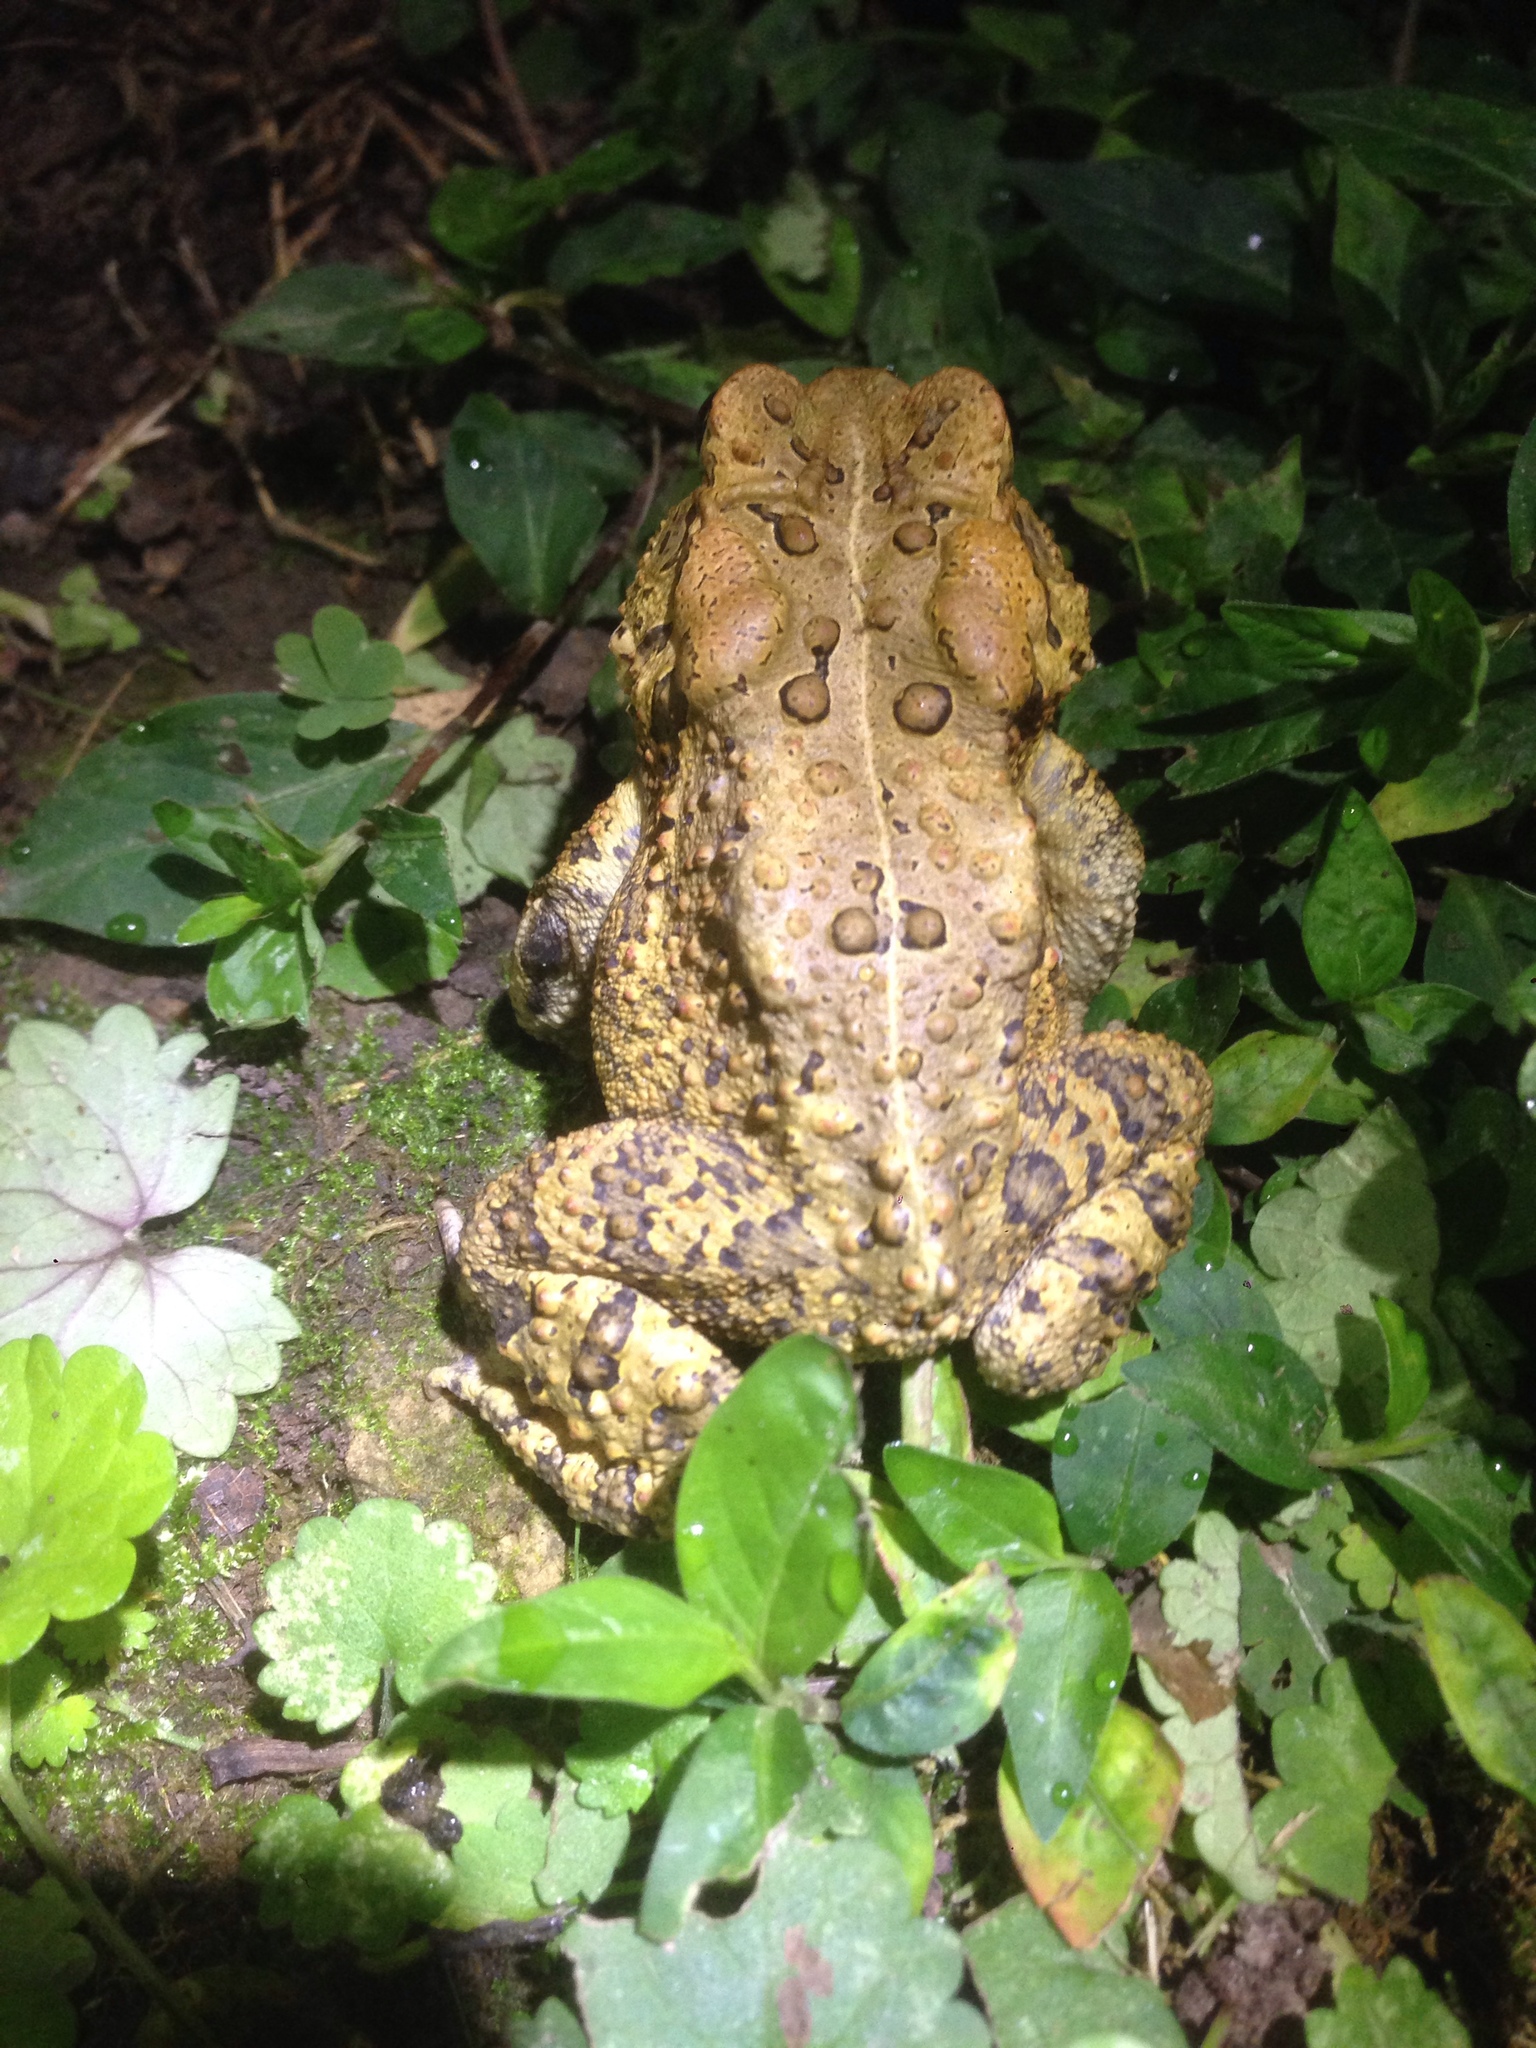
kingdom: Animalia
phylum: Chordata
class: Amphibia
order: Anura
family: Bufonidae
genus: Anaxyrus
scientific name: Anaxyrus americanus
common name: American toad
